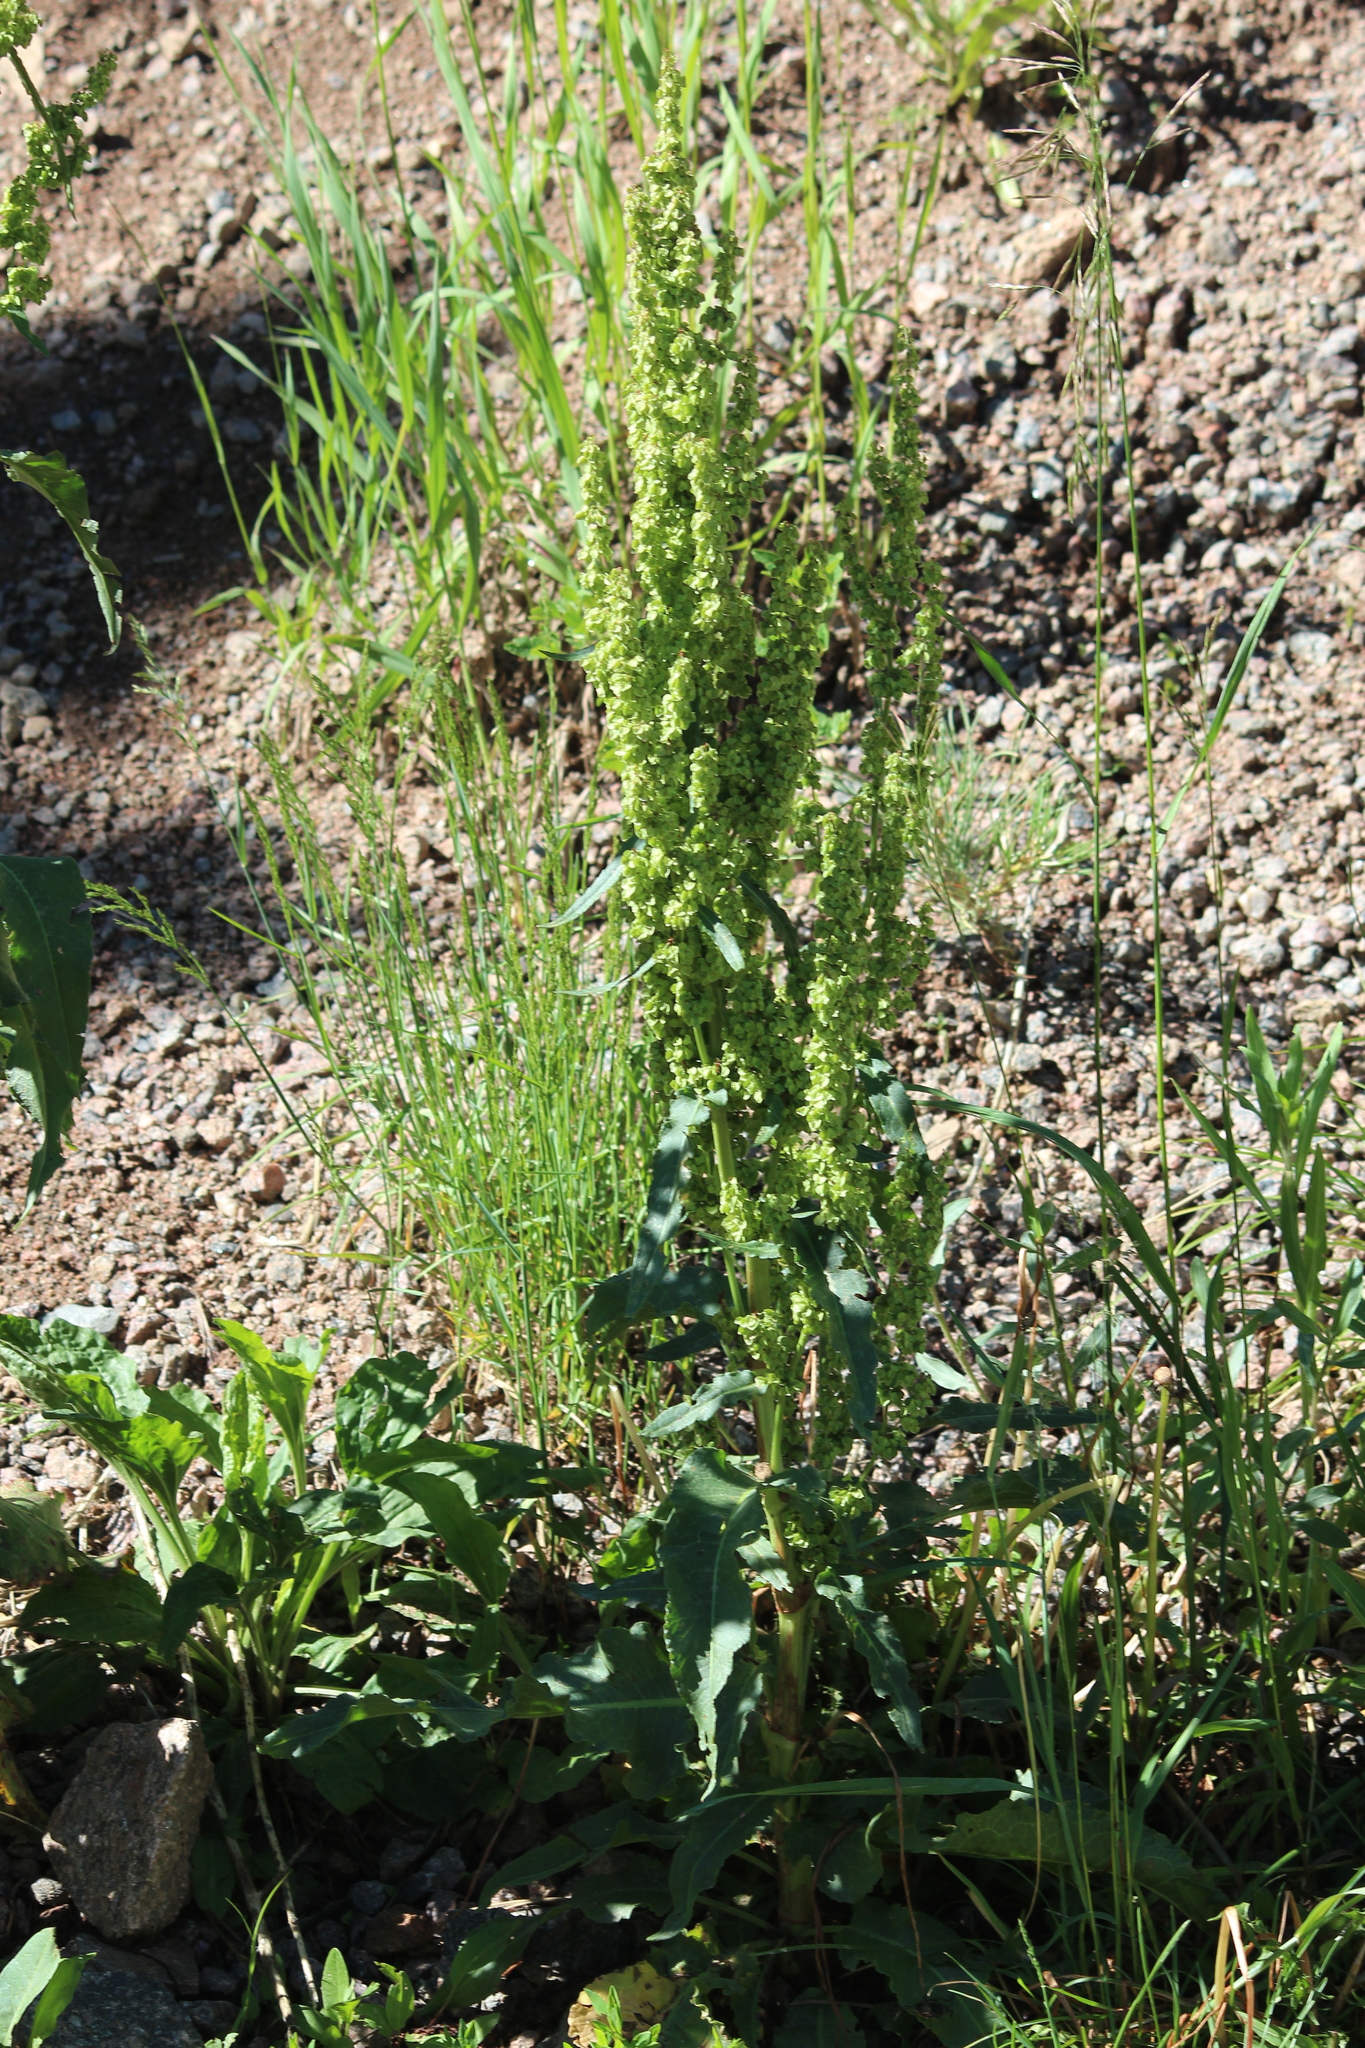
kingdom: Plantae
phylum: Tracheophyta
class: Magnoliopsida
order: Caryophyllales
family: Polygonaceae
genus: Rumex
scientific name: Rumex crispus
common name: Curled dock
